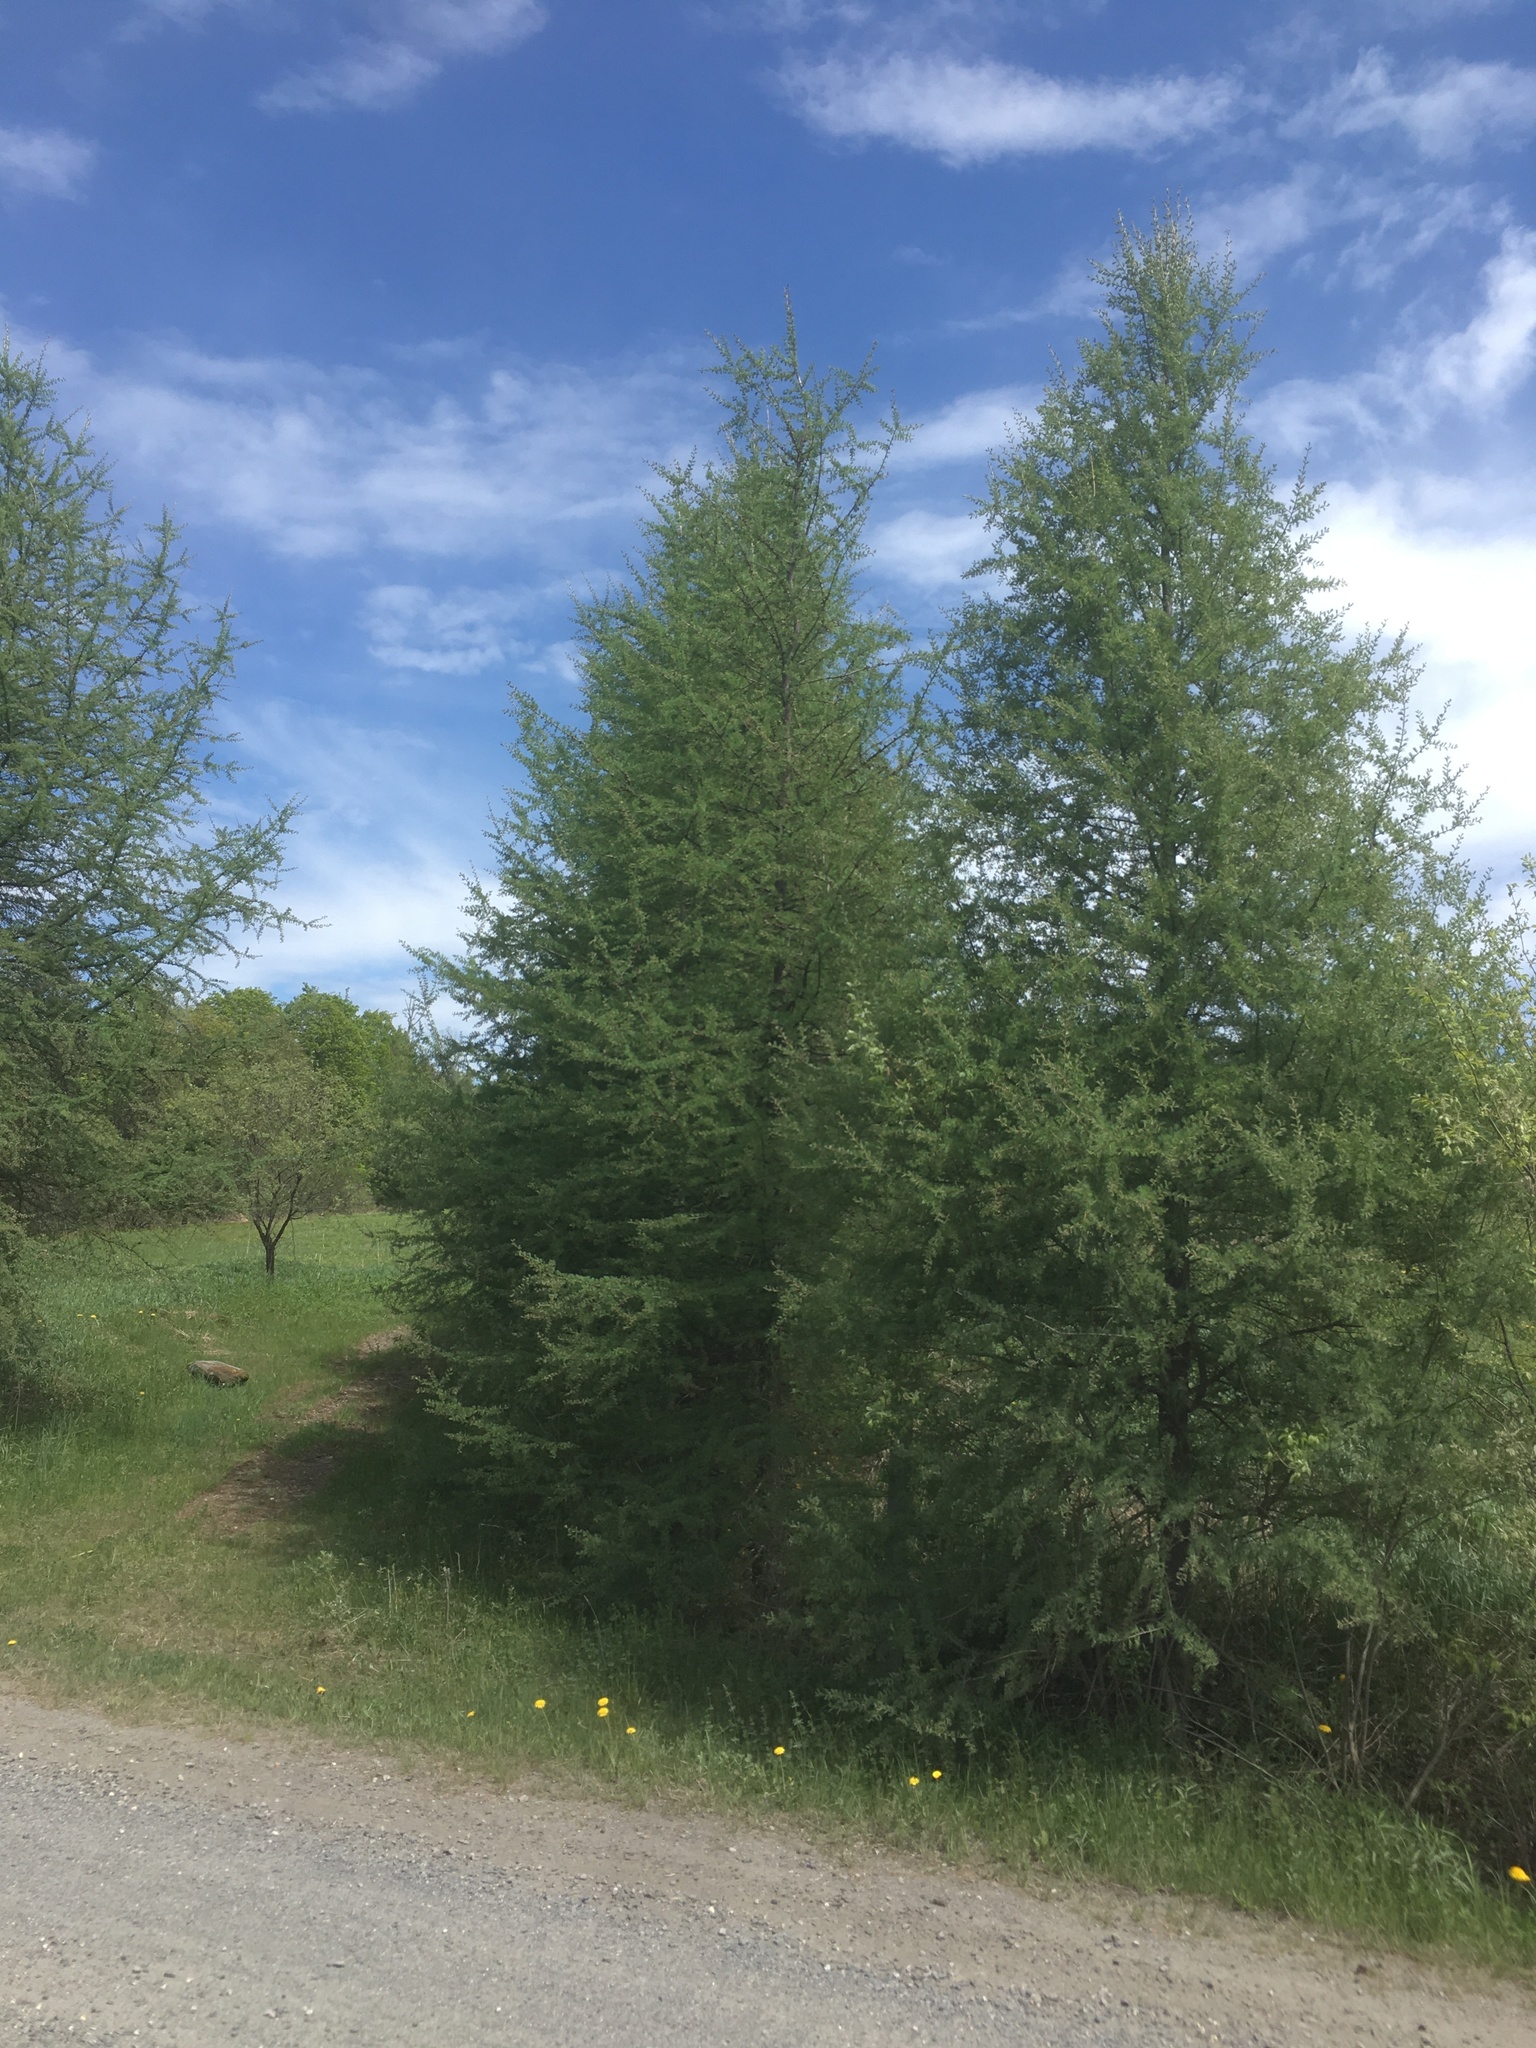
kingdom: Plantae
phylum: Tracheophyta
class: Pinopsida
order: Pinales
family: Pinaceae
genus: Larix
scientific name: Larix laricina
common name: American larch
